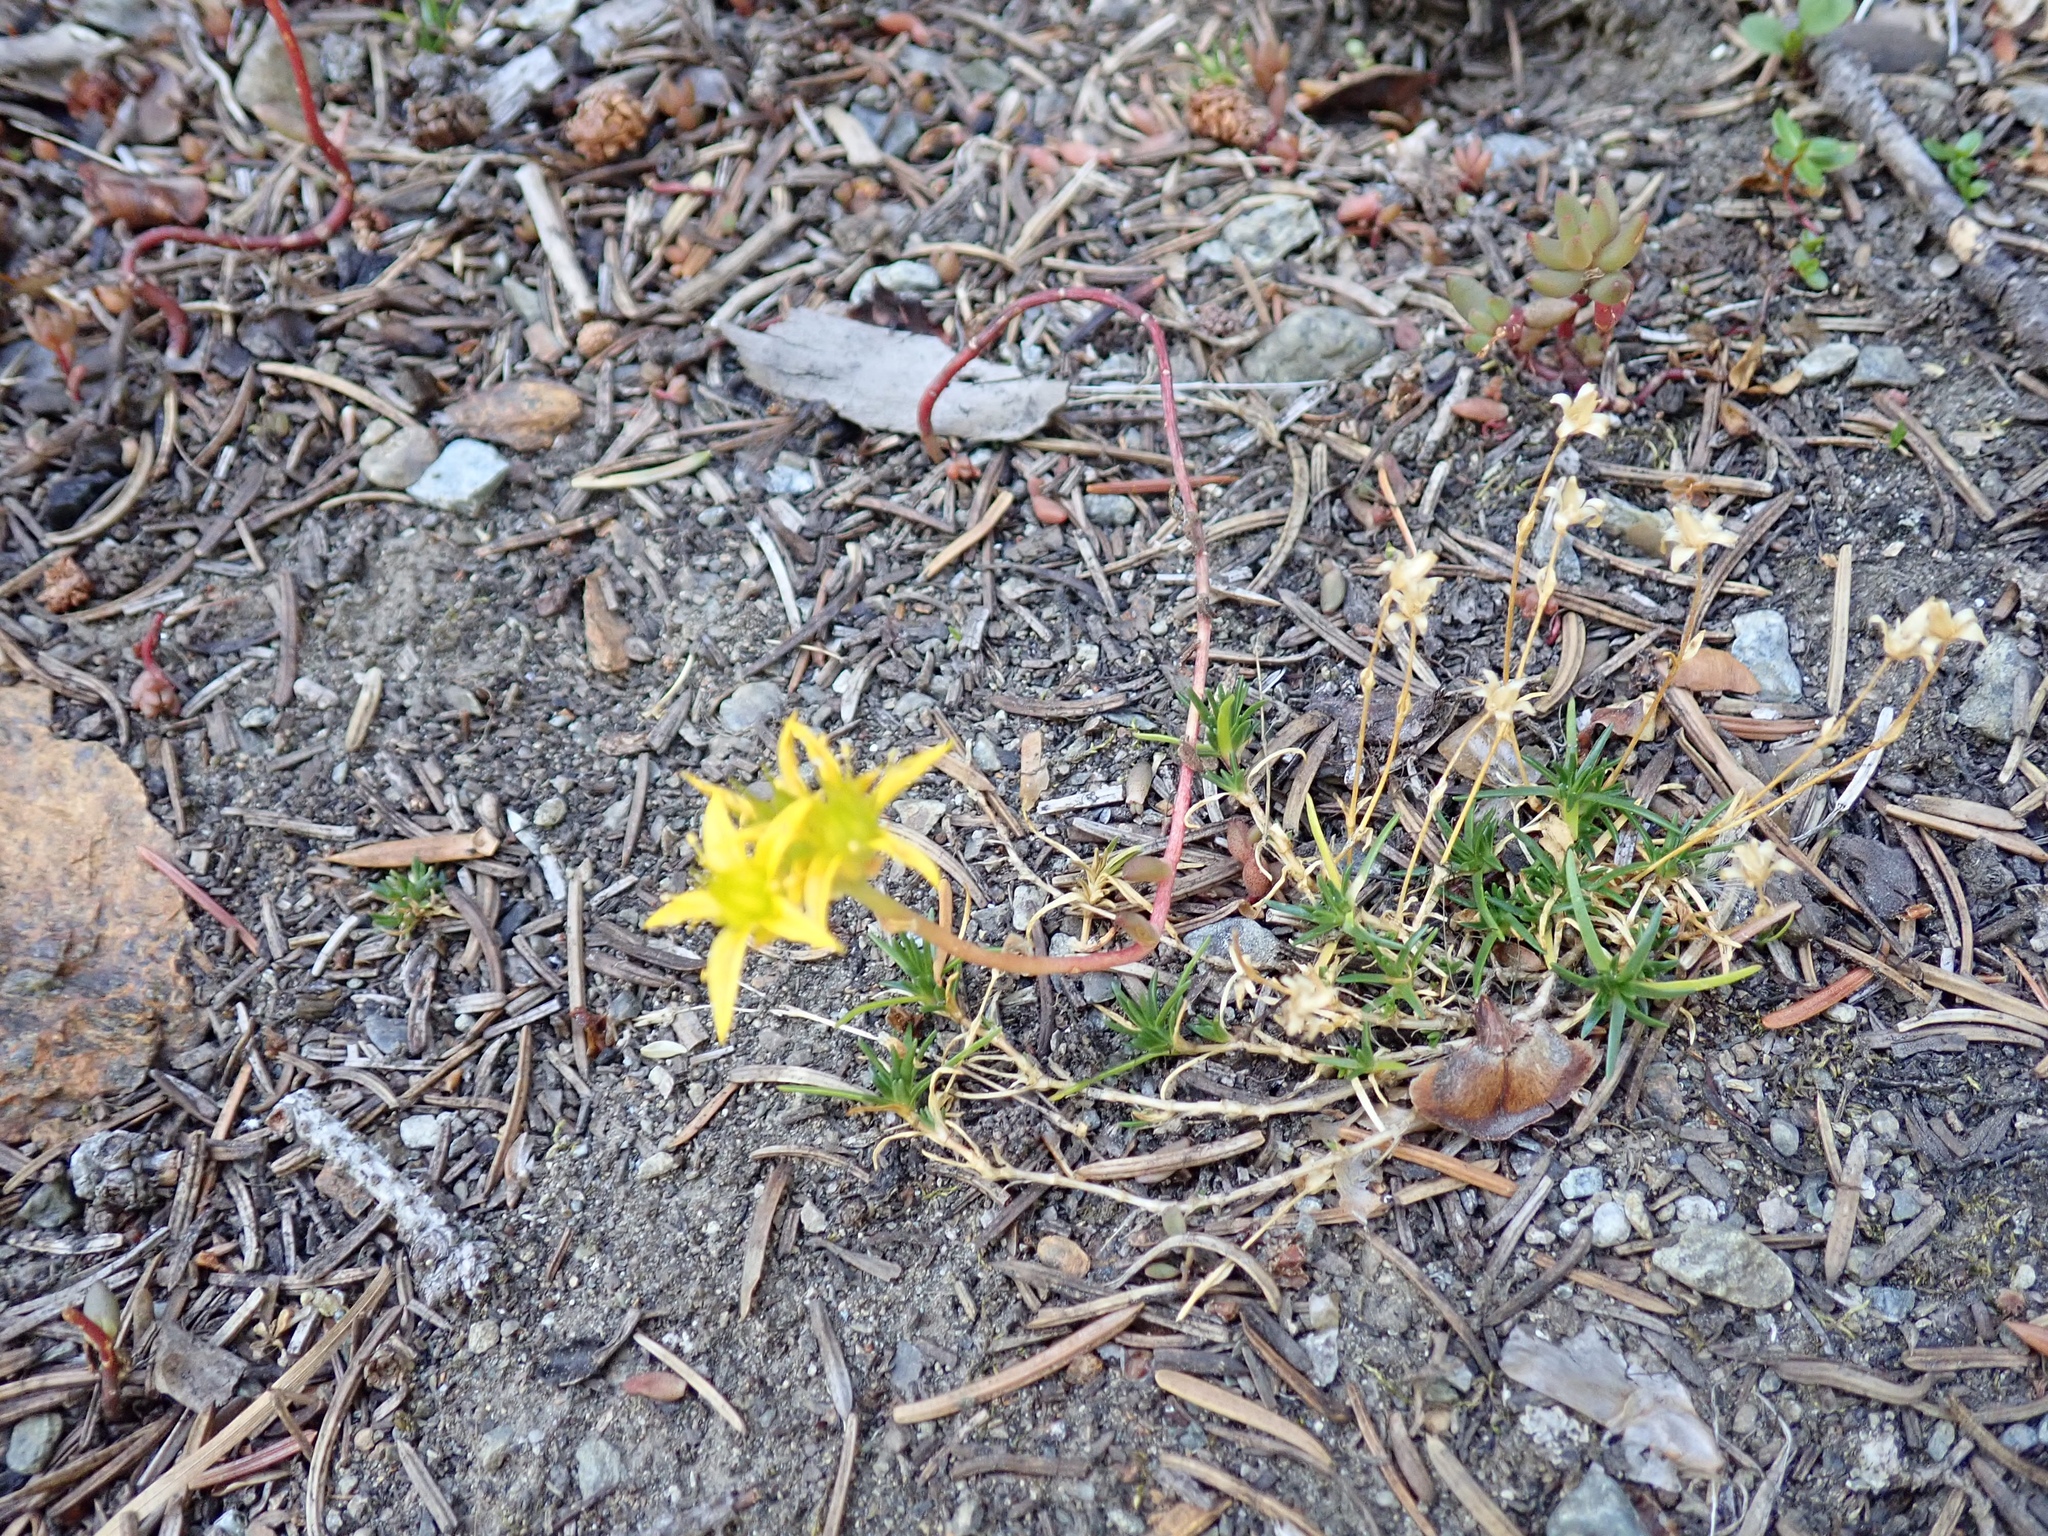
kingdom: Plantae
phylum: Tracheophyta
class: Magnoliopsida
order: Saxifragales
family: Crassulaceae
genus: Sedum
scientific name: Sedum lanceolatum
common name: Common stonecrop
